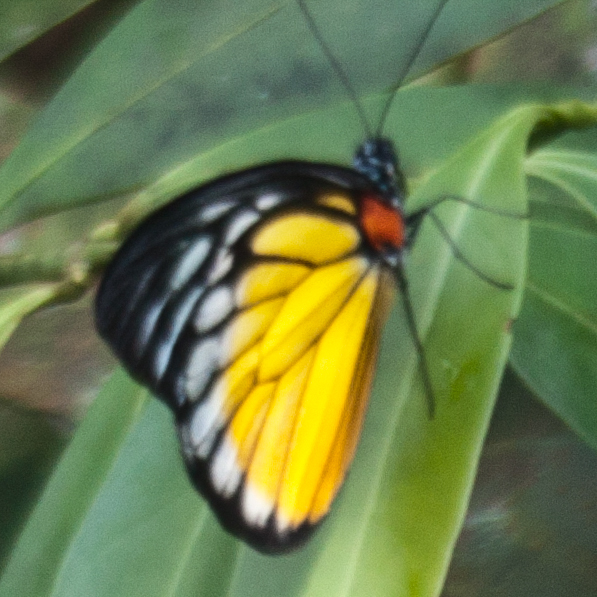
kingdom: Animalia
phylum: Arthropoda
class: Insecta
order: Lepidoptera
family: Pieridae
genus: Prioneris
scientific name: Prioneris
